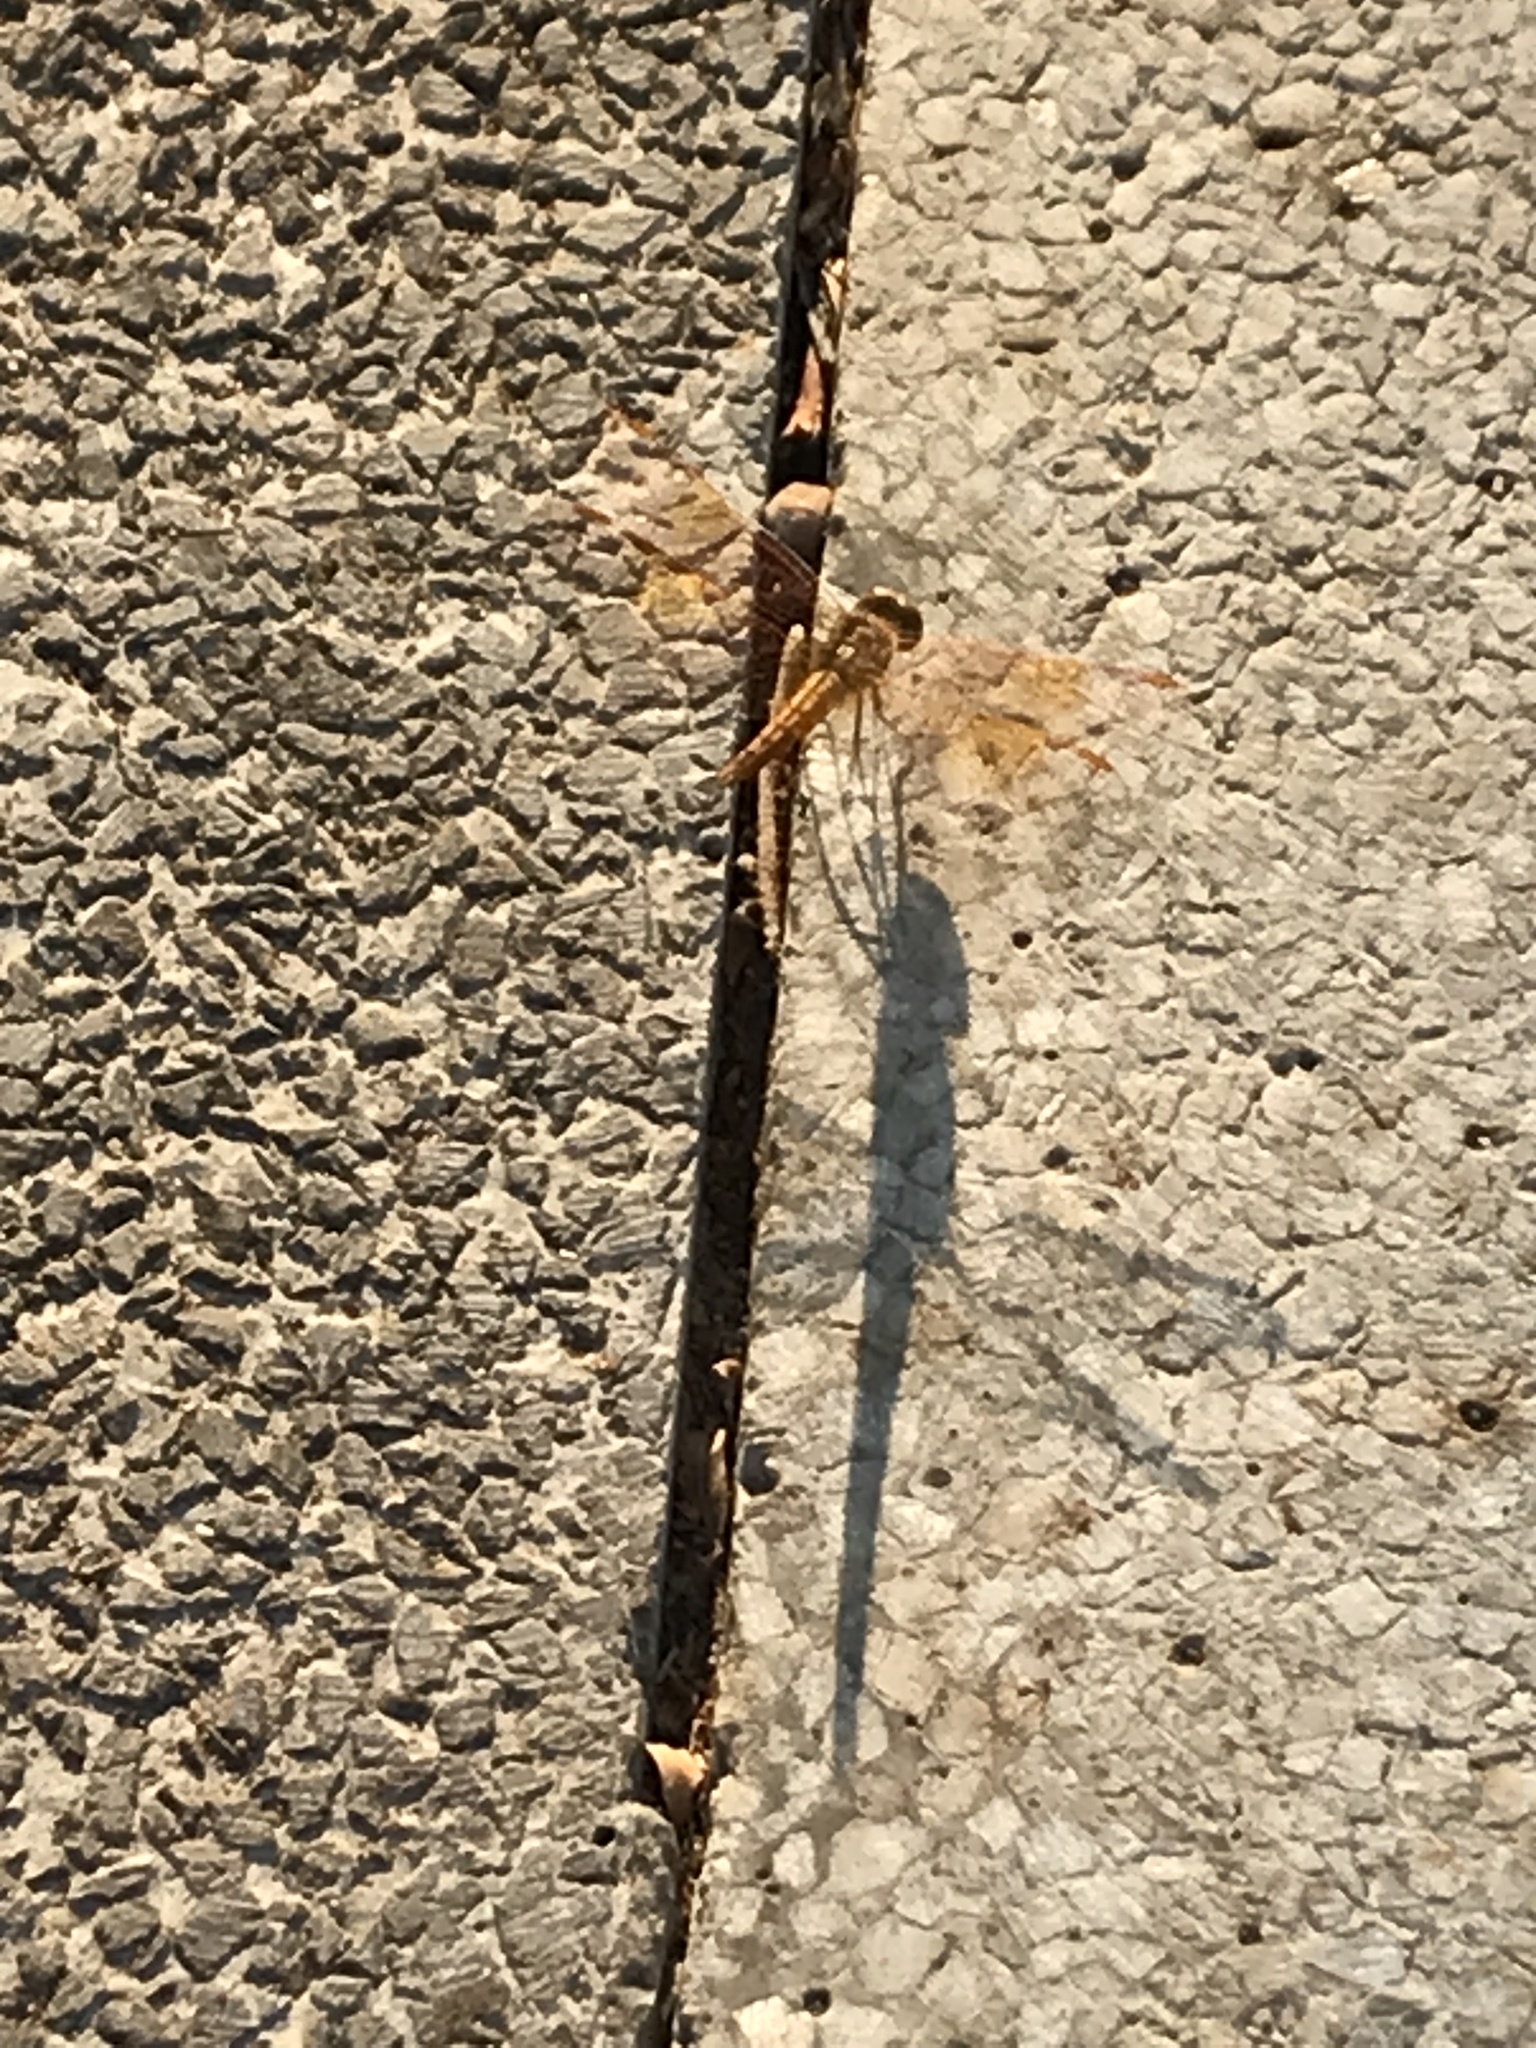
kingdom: Animalia
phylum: Arthropoda
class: Insecta
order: Odonata
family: Libellulidae
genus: Brachythemis
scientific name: Brachythemis contaminata
